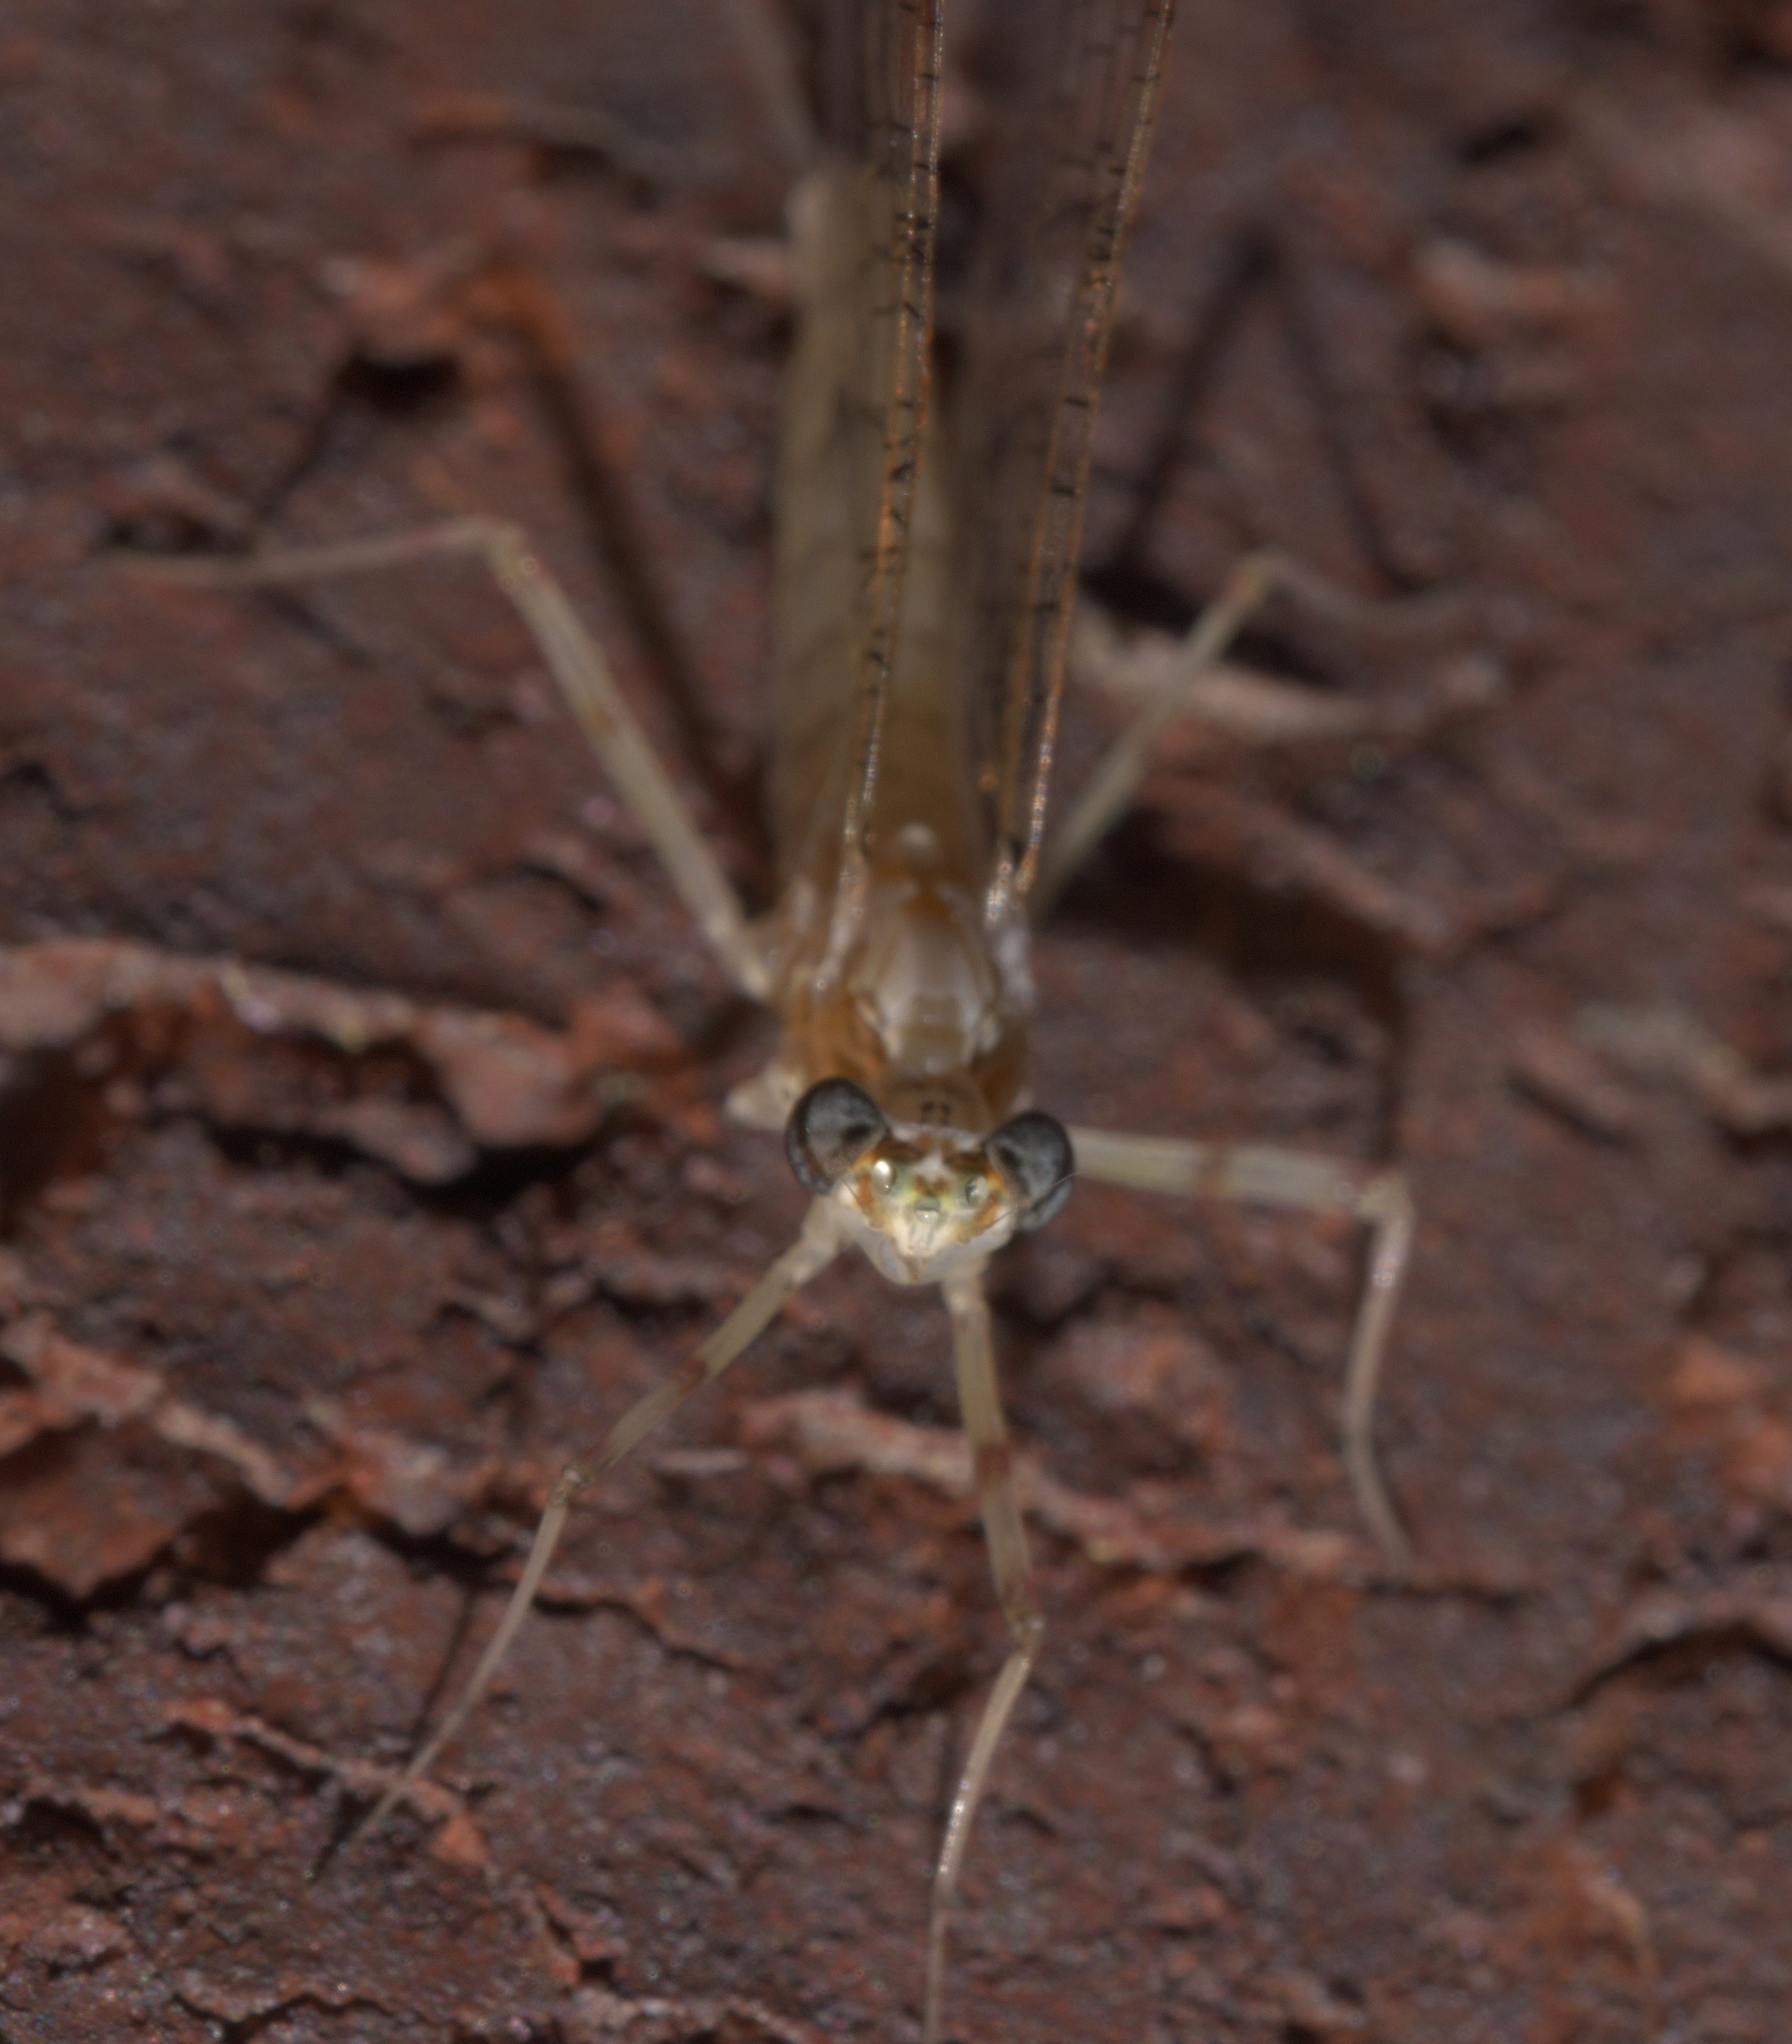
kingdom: Animalia
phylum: Arthropoda
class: Insecta
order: Ephemeroptera
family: Heptageniidae
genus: Stenonema
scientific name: Stenonema femoratum
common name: Dark cahill
